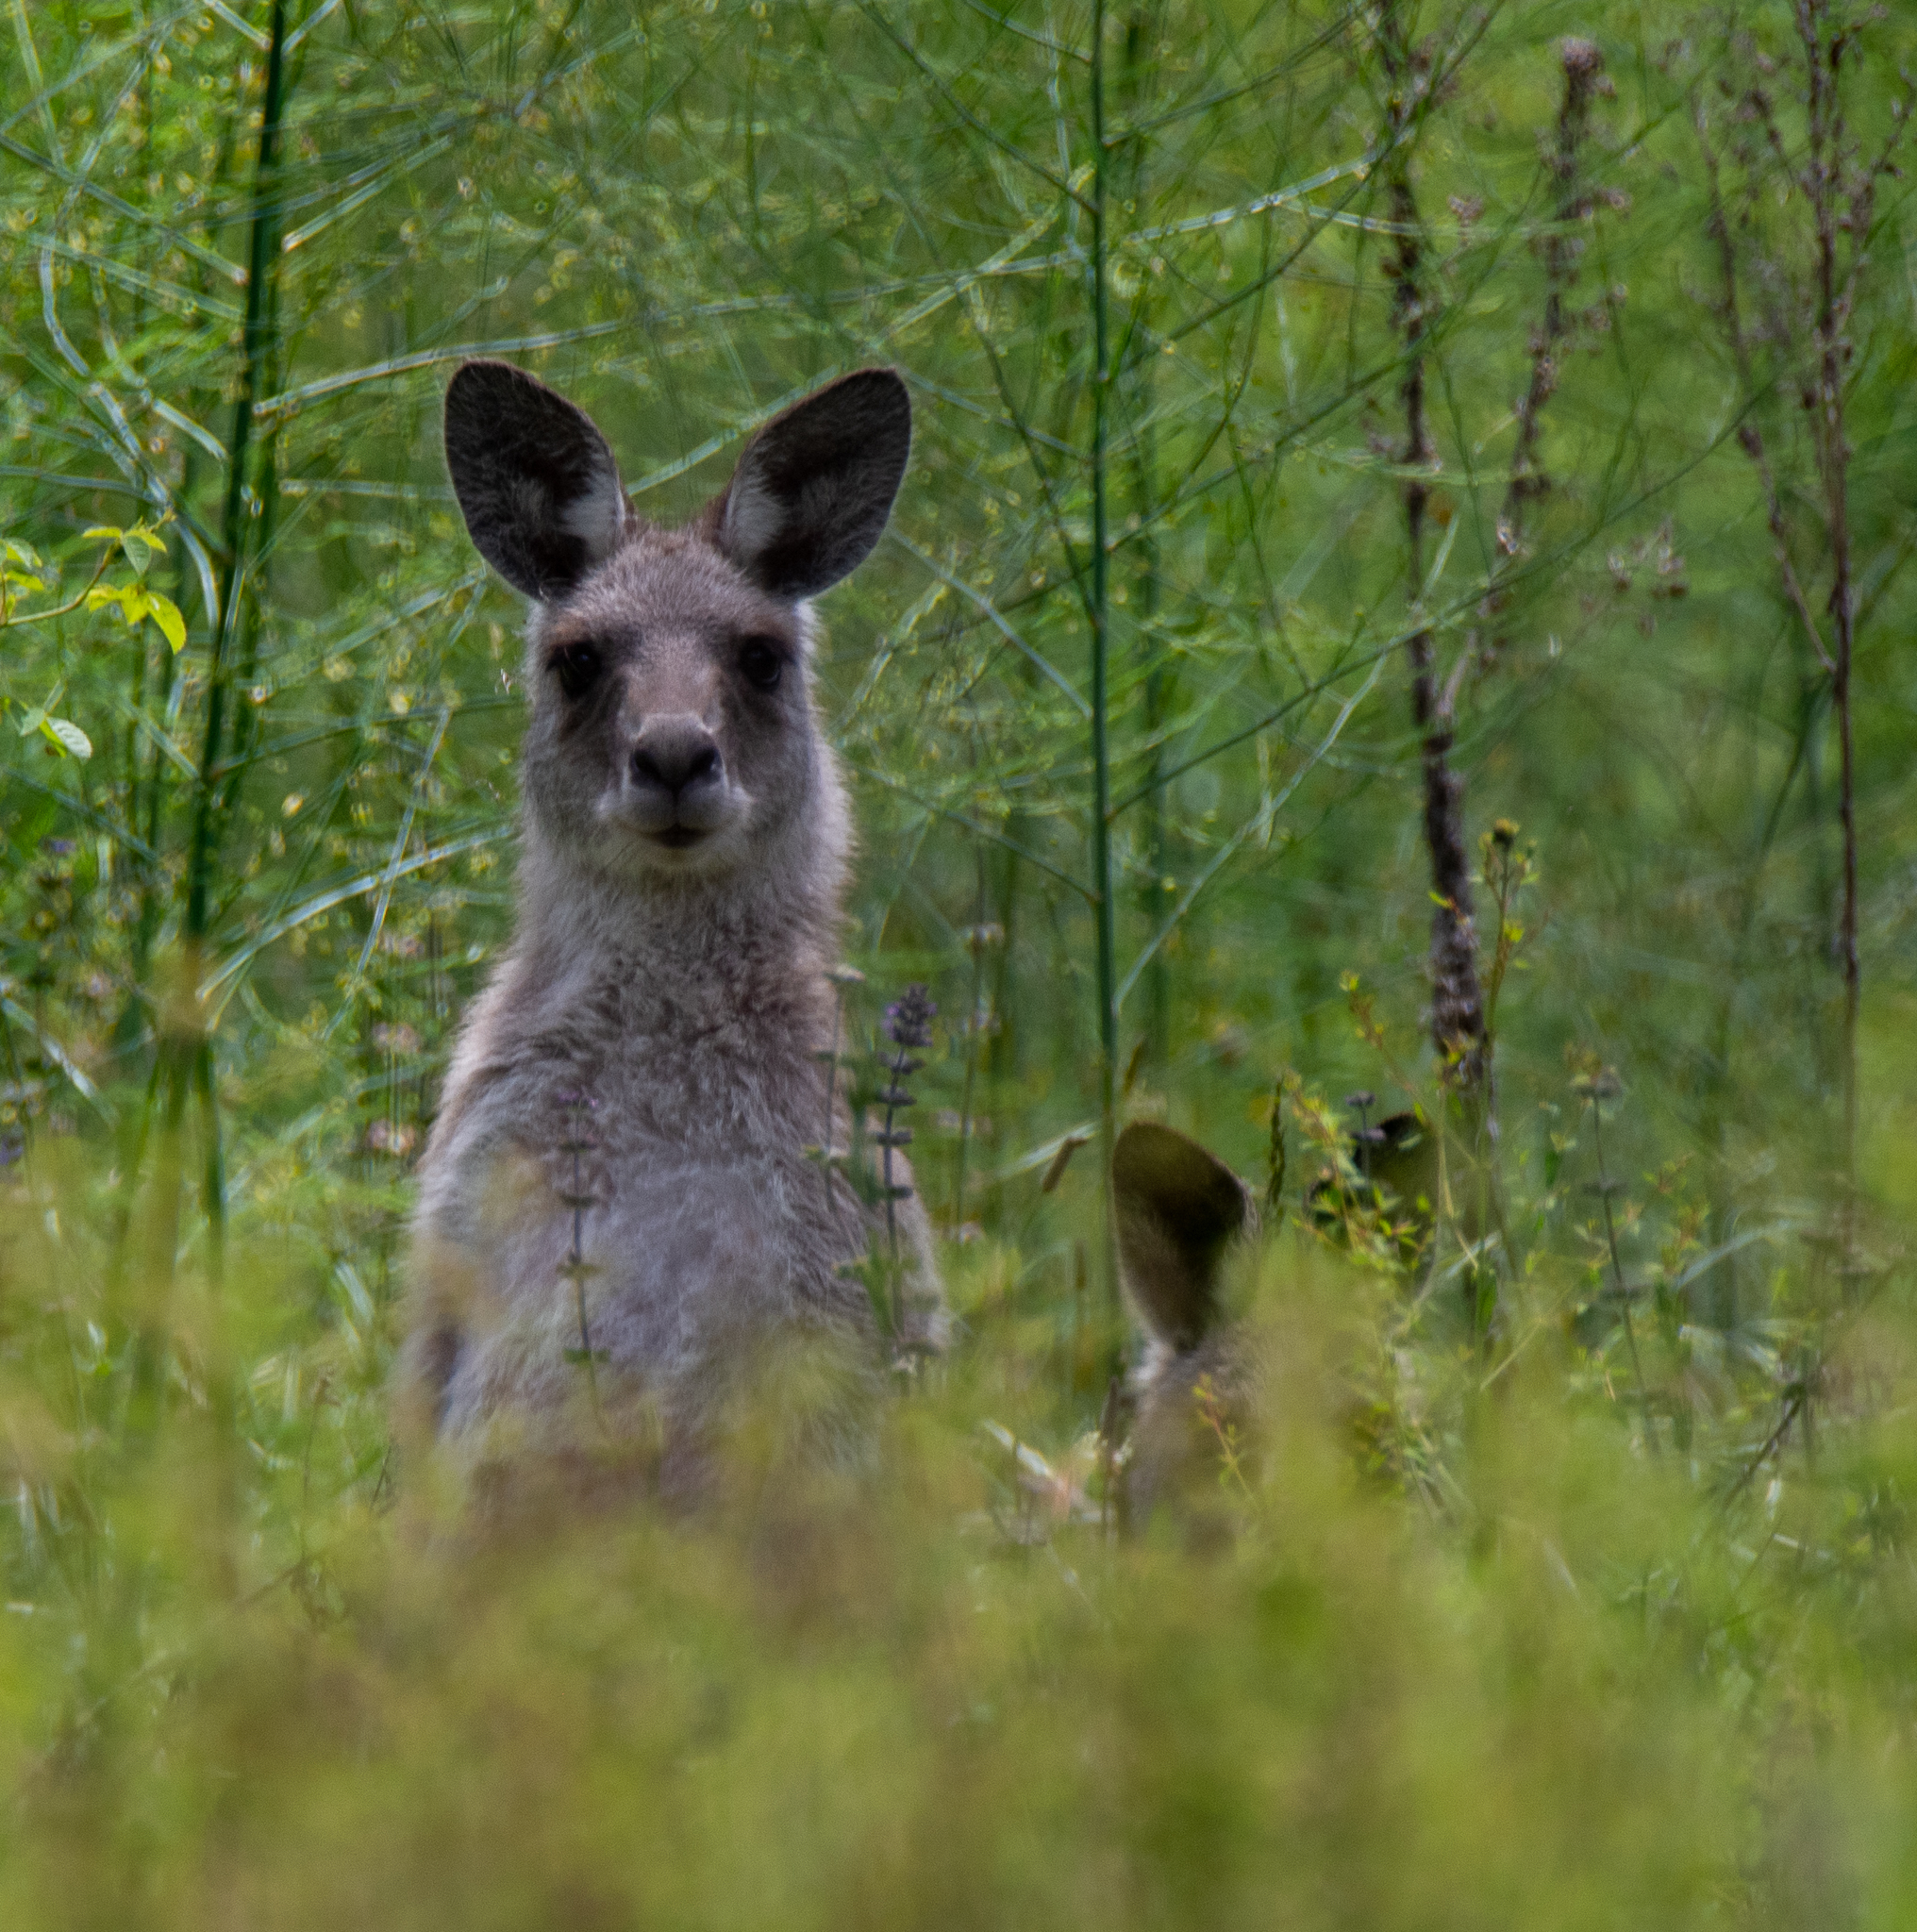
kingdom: Animalia
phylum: Chordata
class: Mammalia
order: Diprotodontia
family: Macropodidae
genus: Macropus
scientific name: Macropus giganteus
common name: Eastern grey kangaroo
